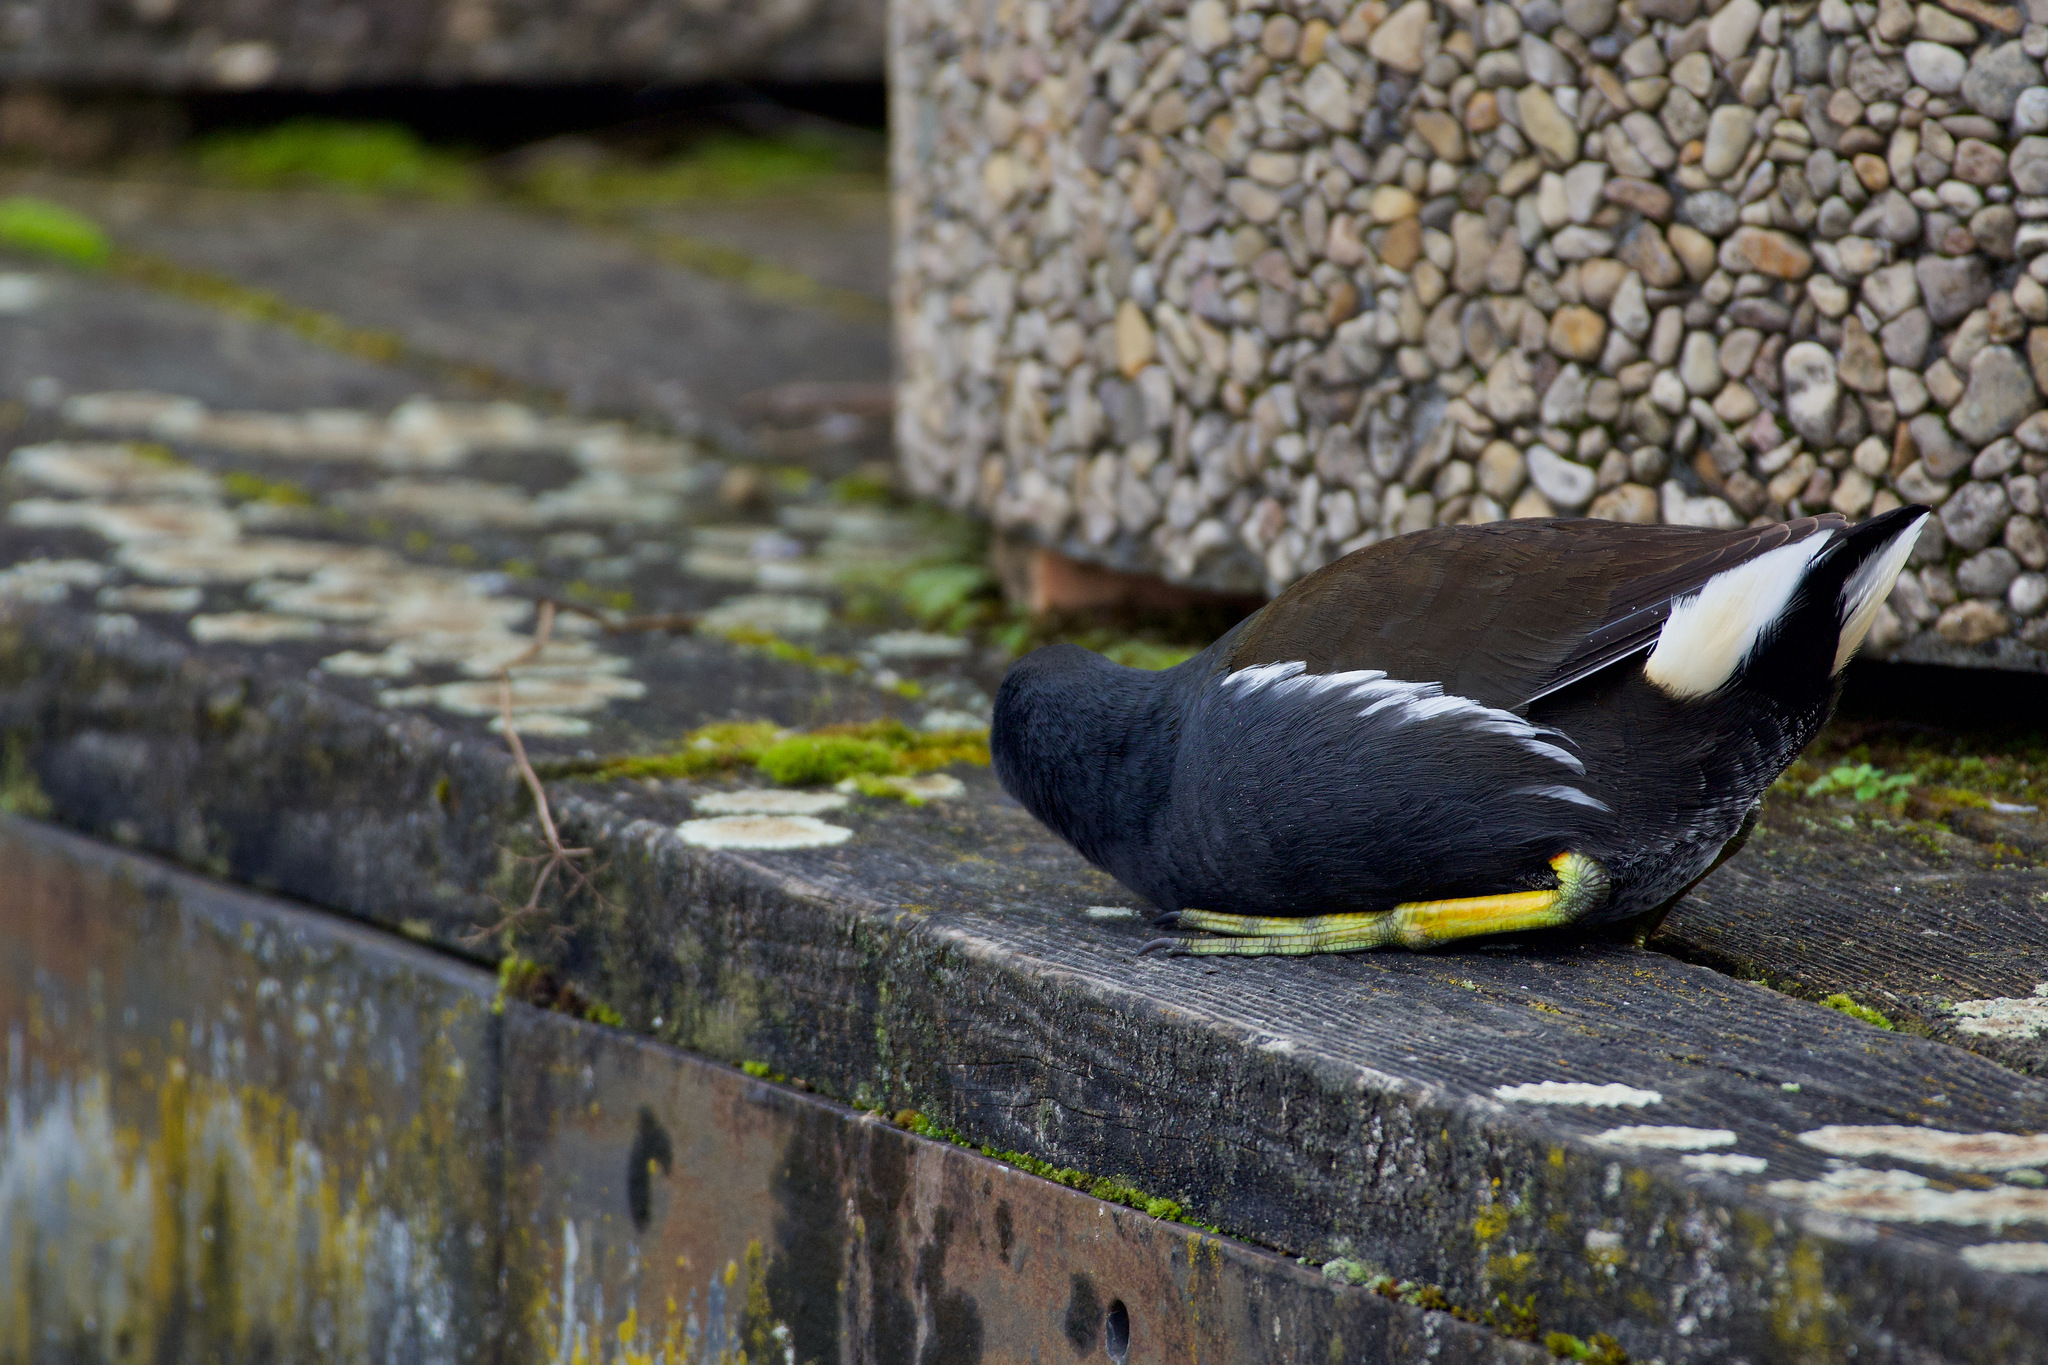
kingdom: Animalia
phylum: Chordata
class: Aves
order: Gruiformes
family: Rallidae
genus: Gallinula
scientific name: Gallinula chloropus
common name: Common moorhen
